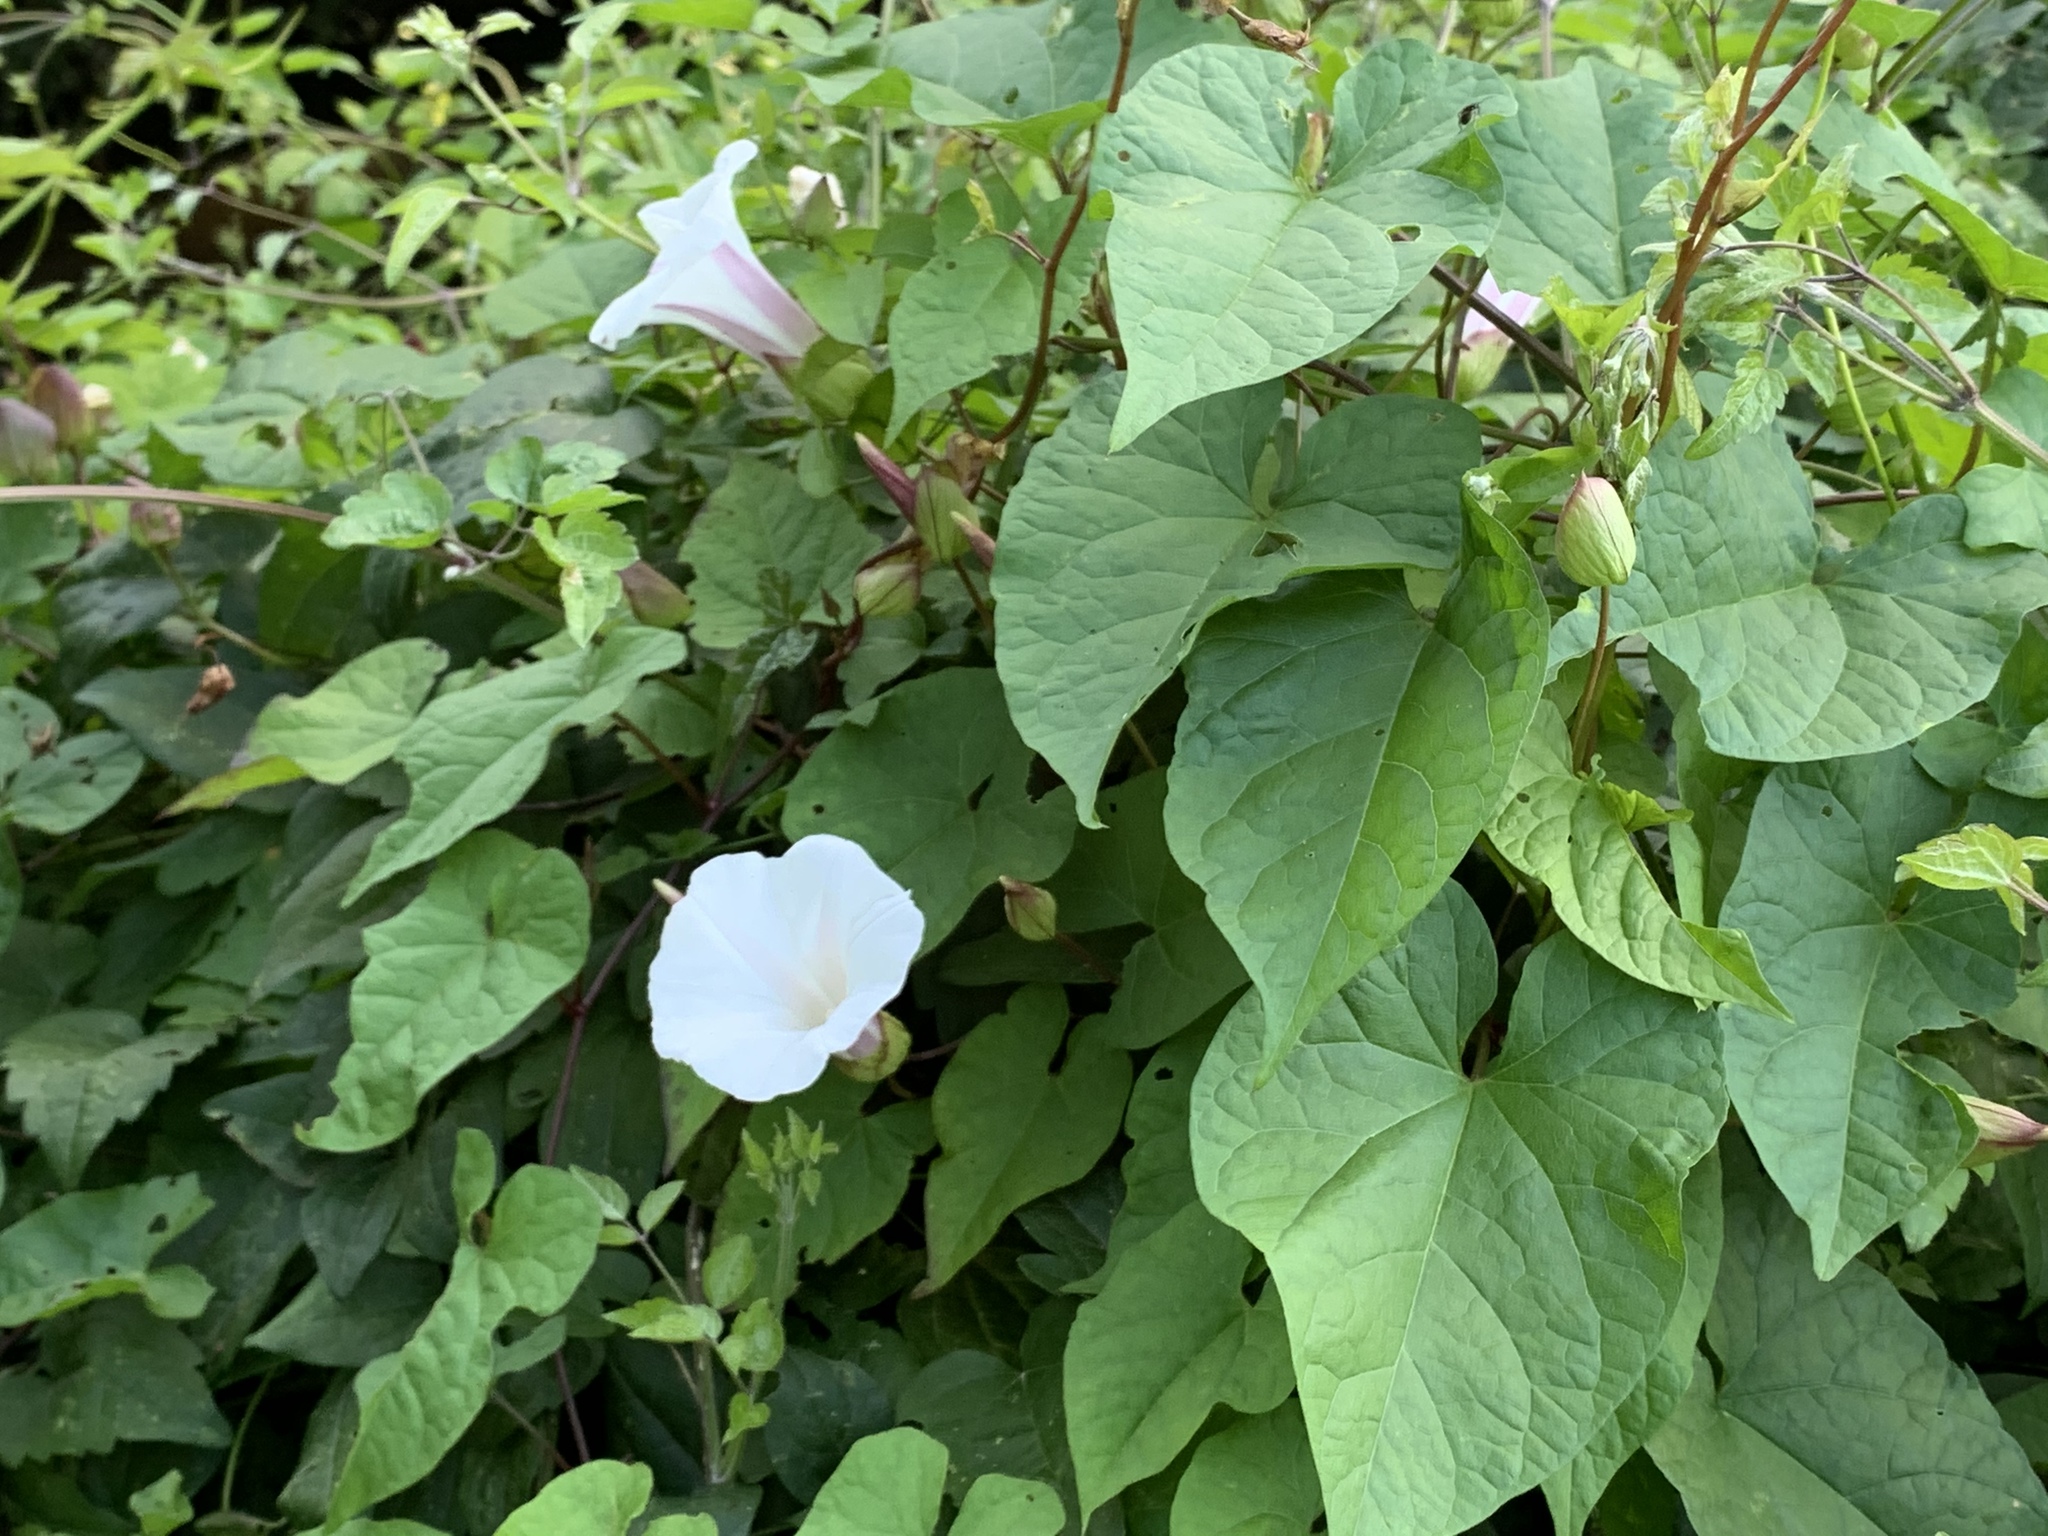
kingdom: Plantae
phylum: Tracheophyta
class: Magnoliopsida
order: Solanales
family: Convolvulaceae
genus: Calystegia
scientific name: Calystegia silvatica
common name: Large bindweed
